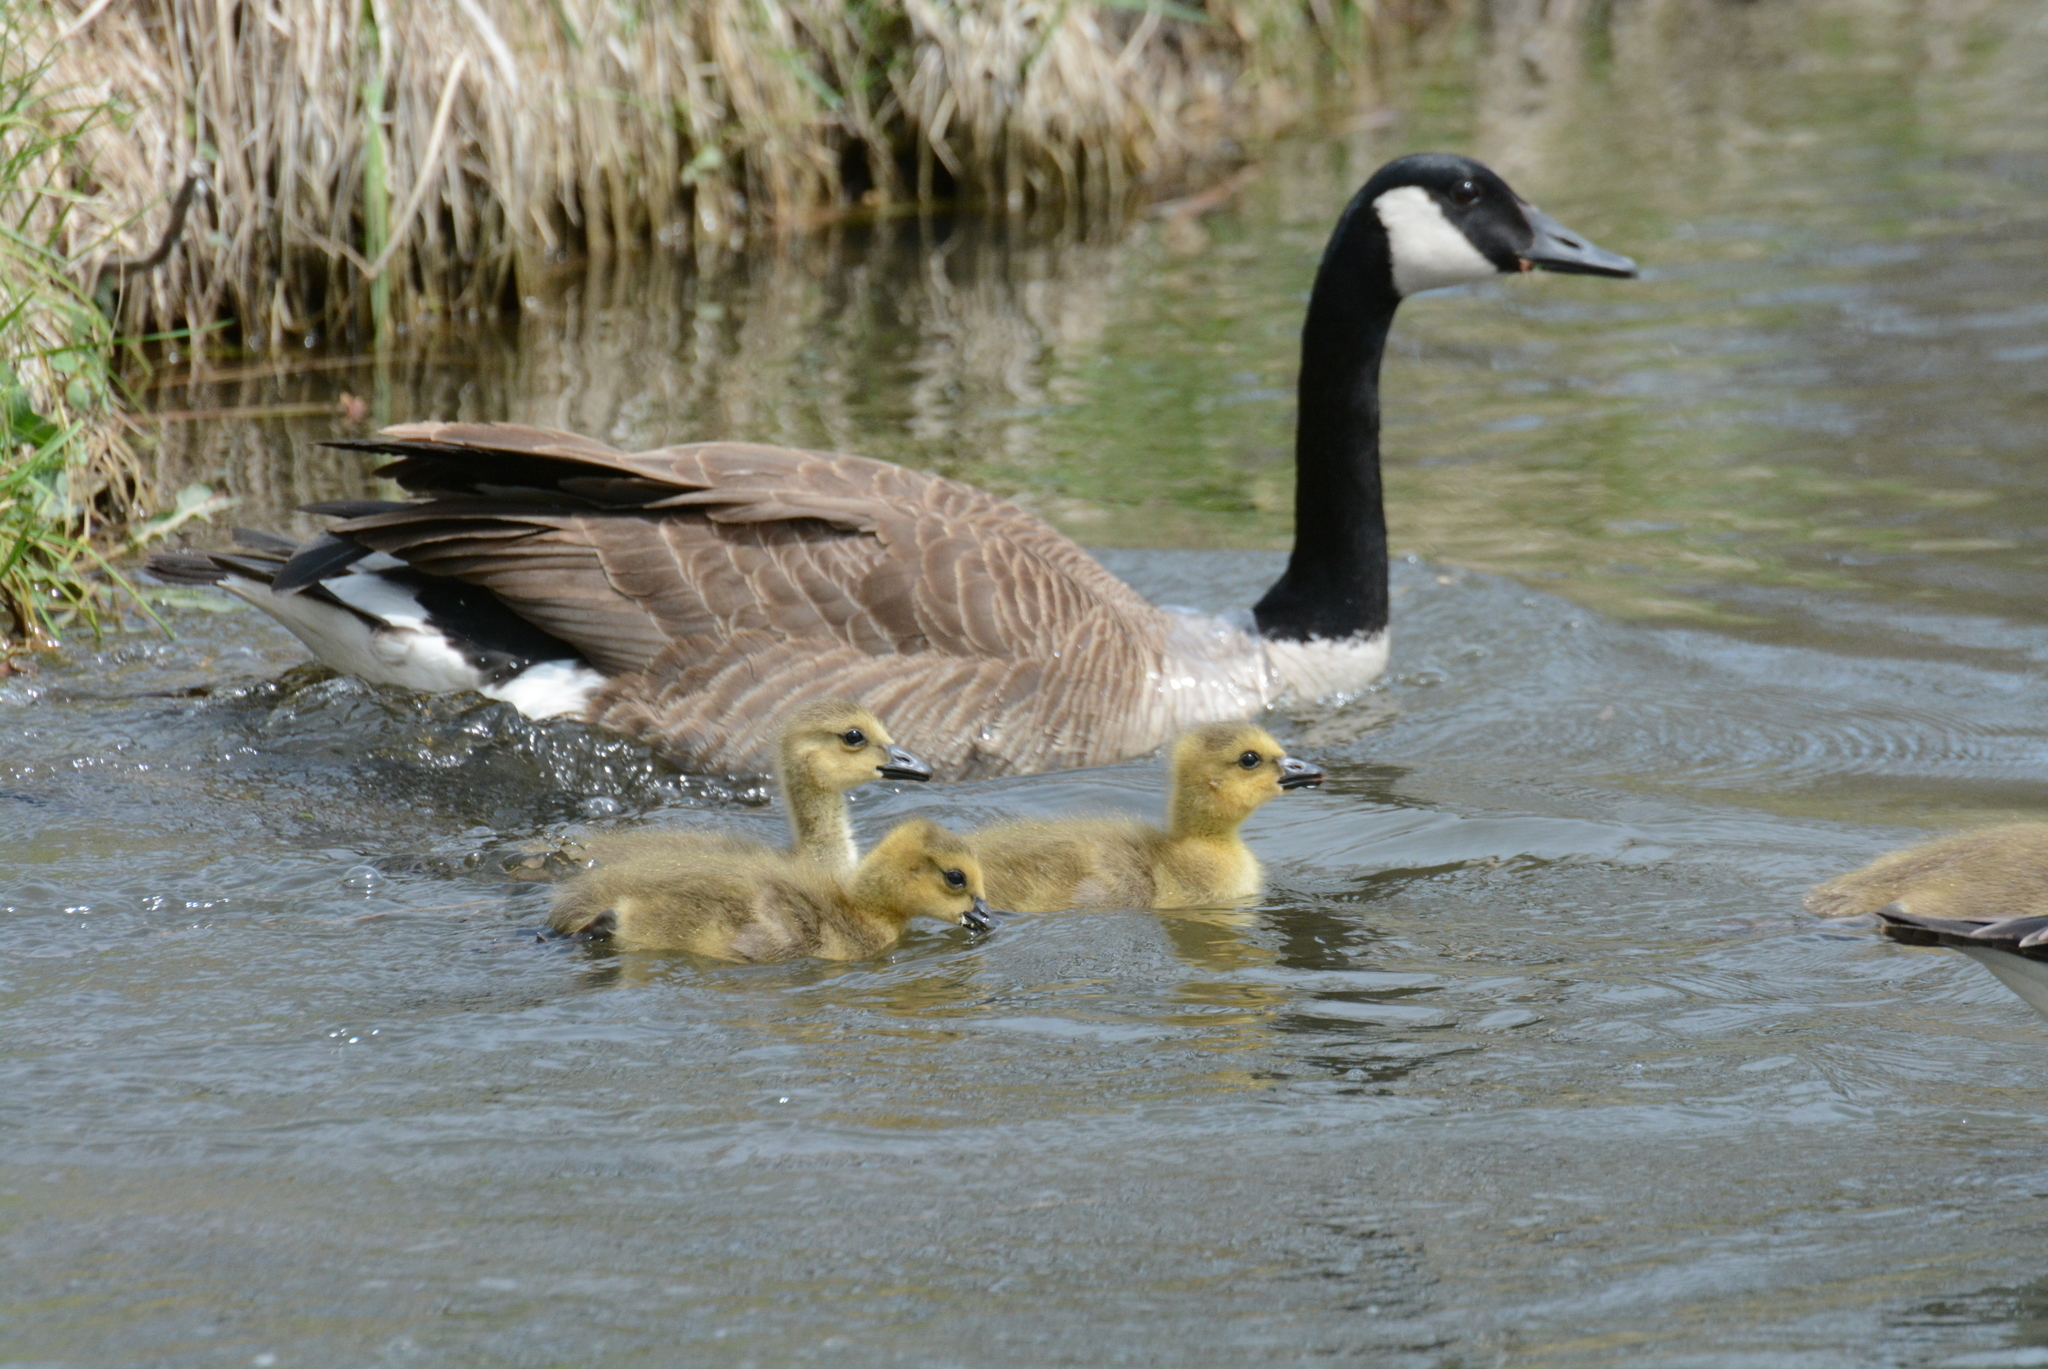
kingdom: Animalia
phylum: Chordata
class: Aves
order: Anseriformes
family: Anatidae
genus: Branta
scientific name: Branta canadensis
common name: Canada goose
